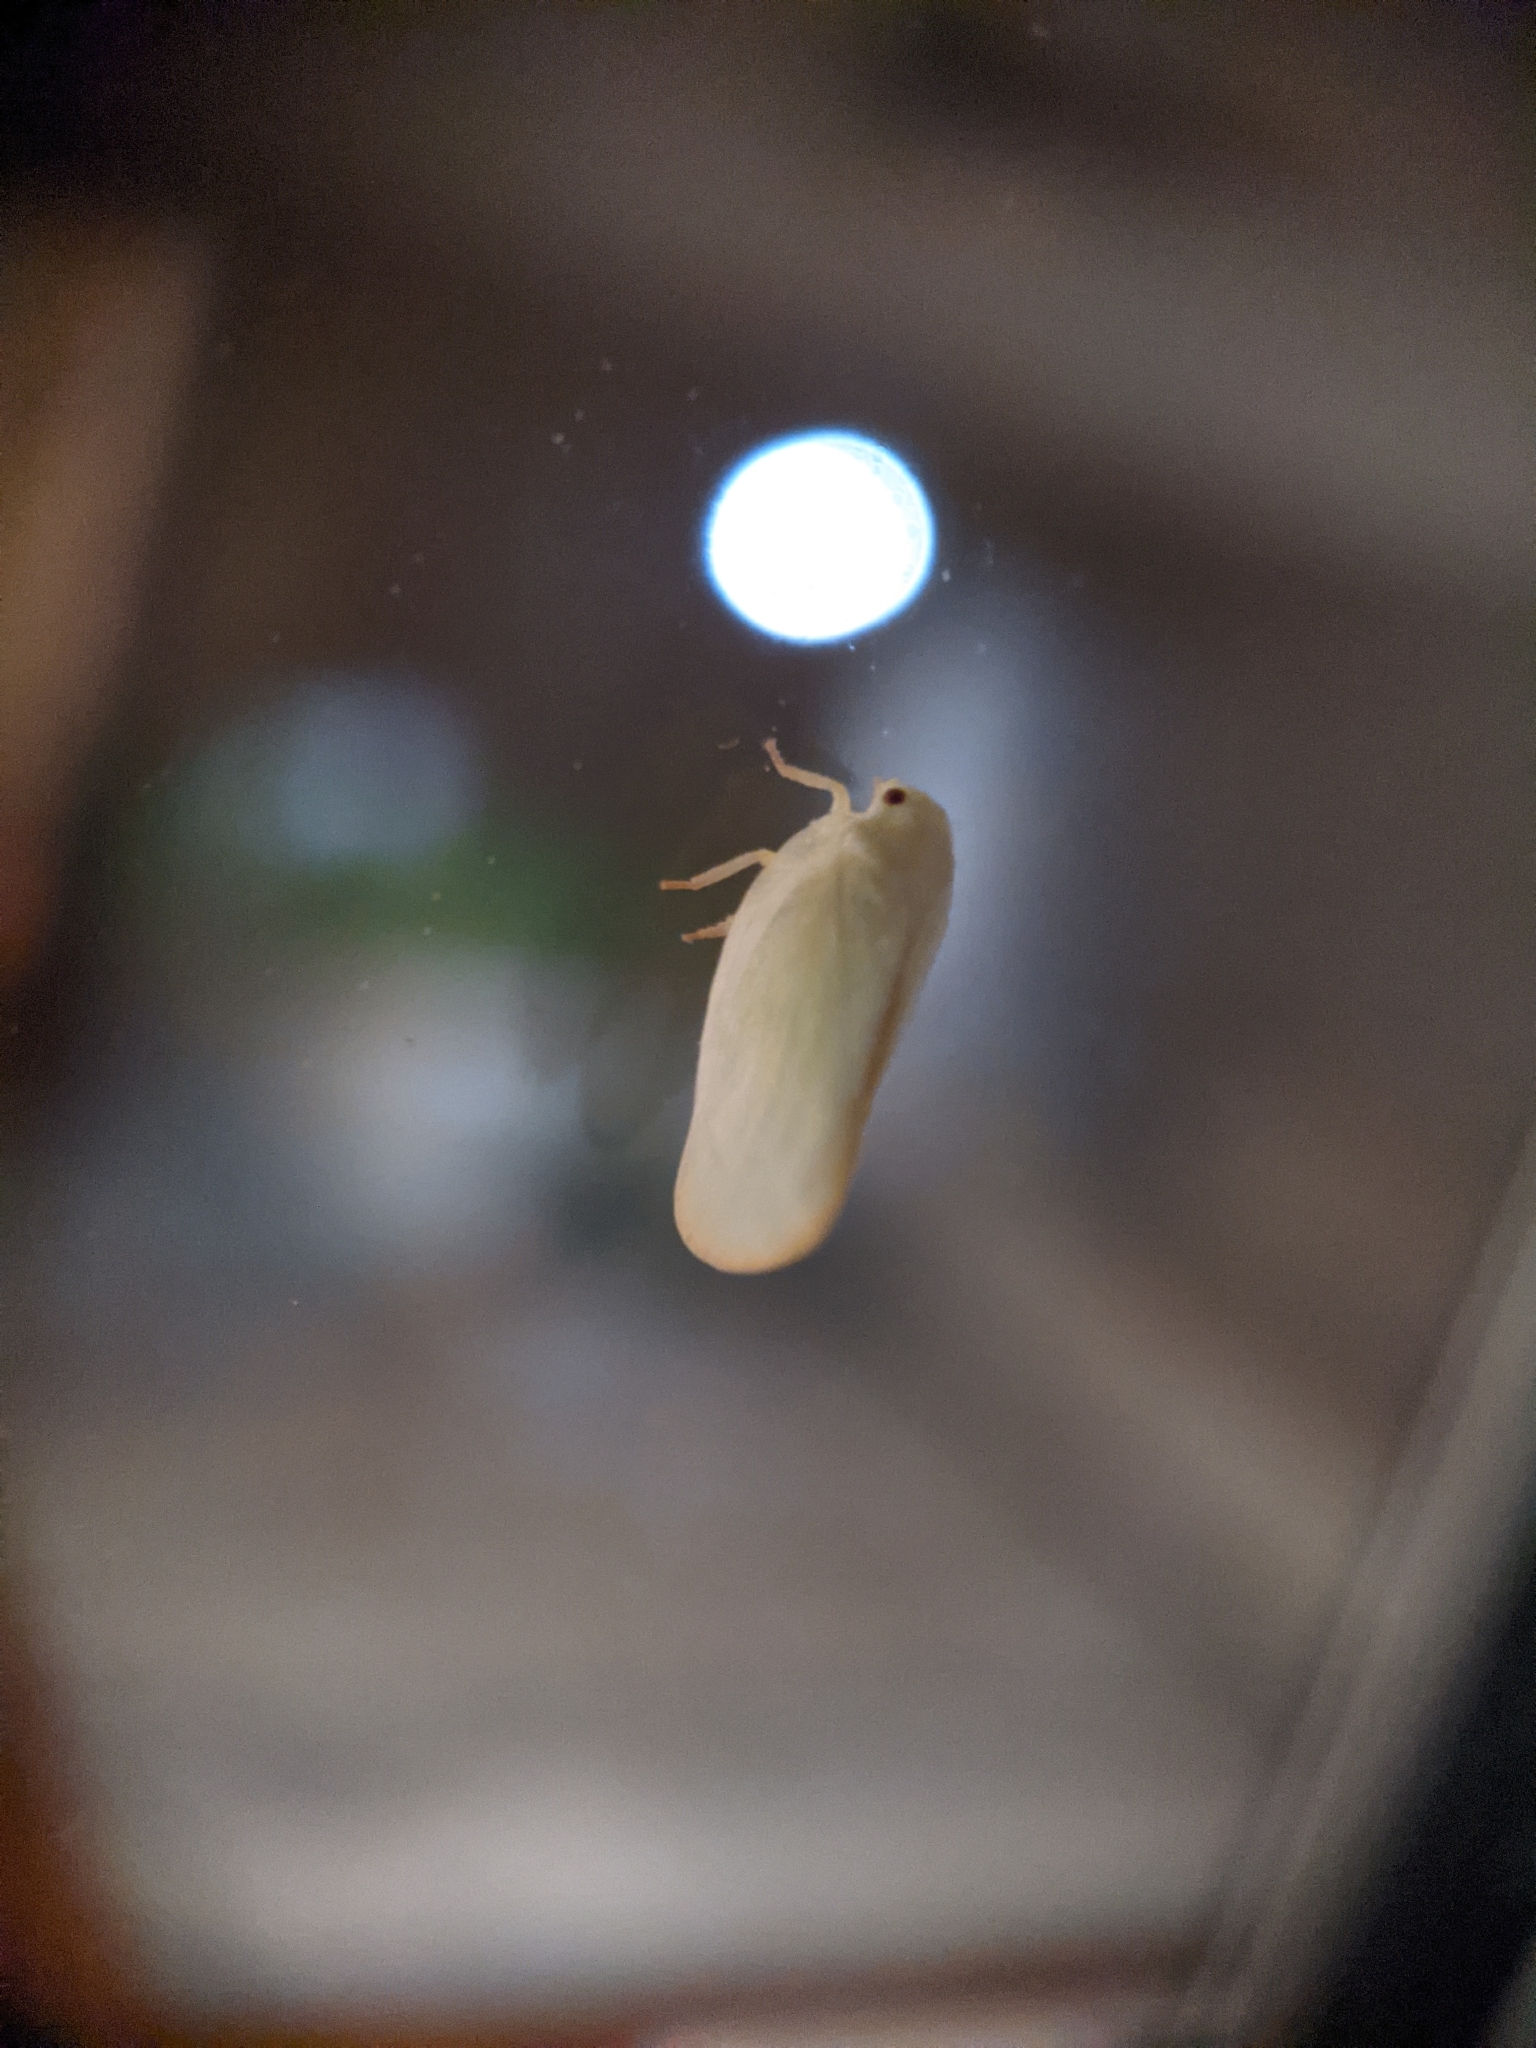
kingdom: Animalia
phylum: Arthropoda
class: Insecta
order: Hemiptera
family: Flatidae
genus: Ormenoides
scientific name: Ormenoides venusta
